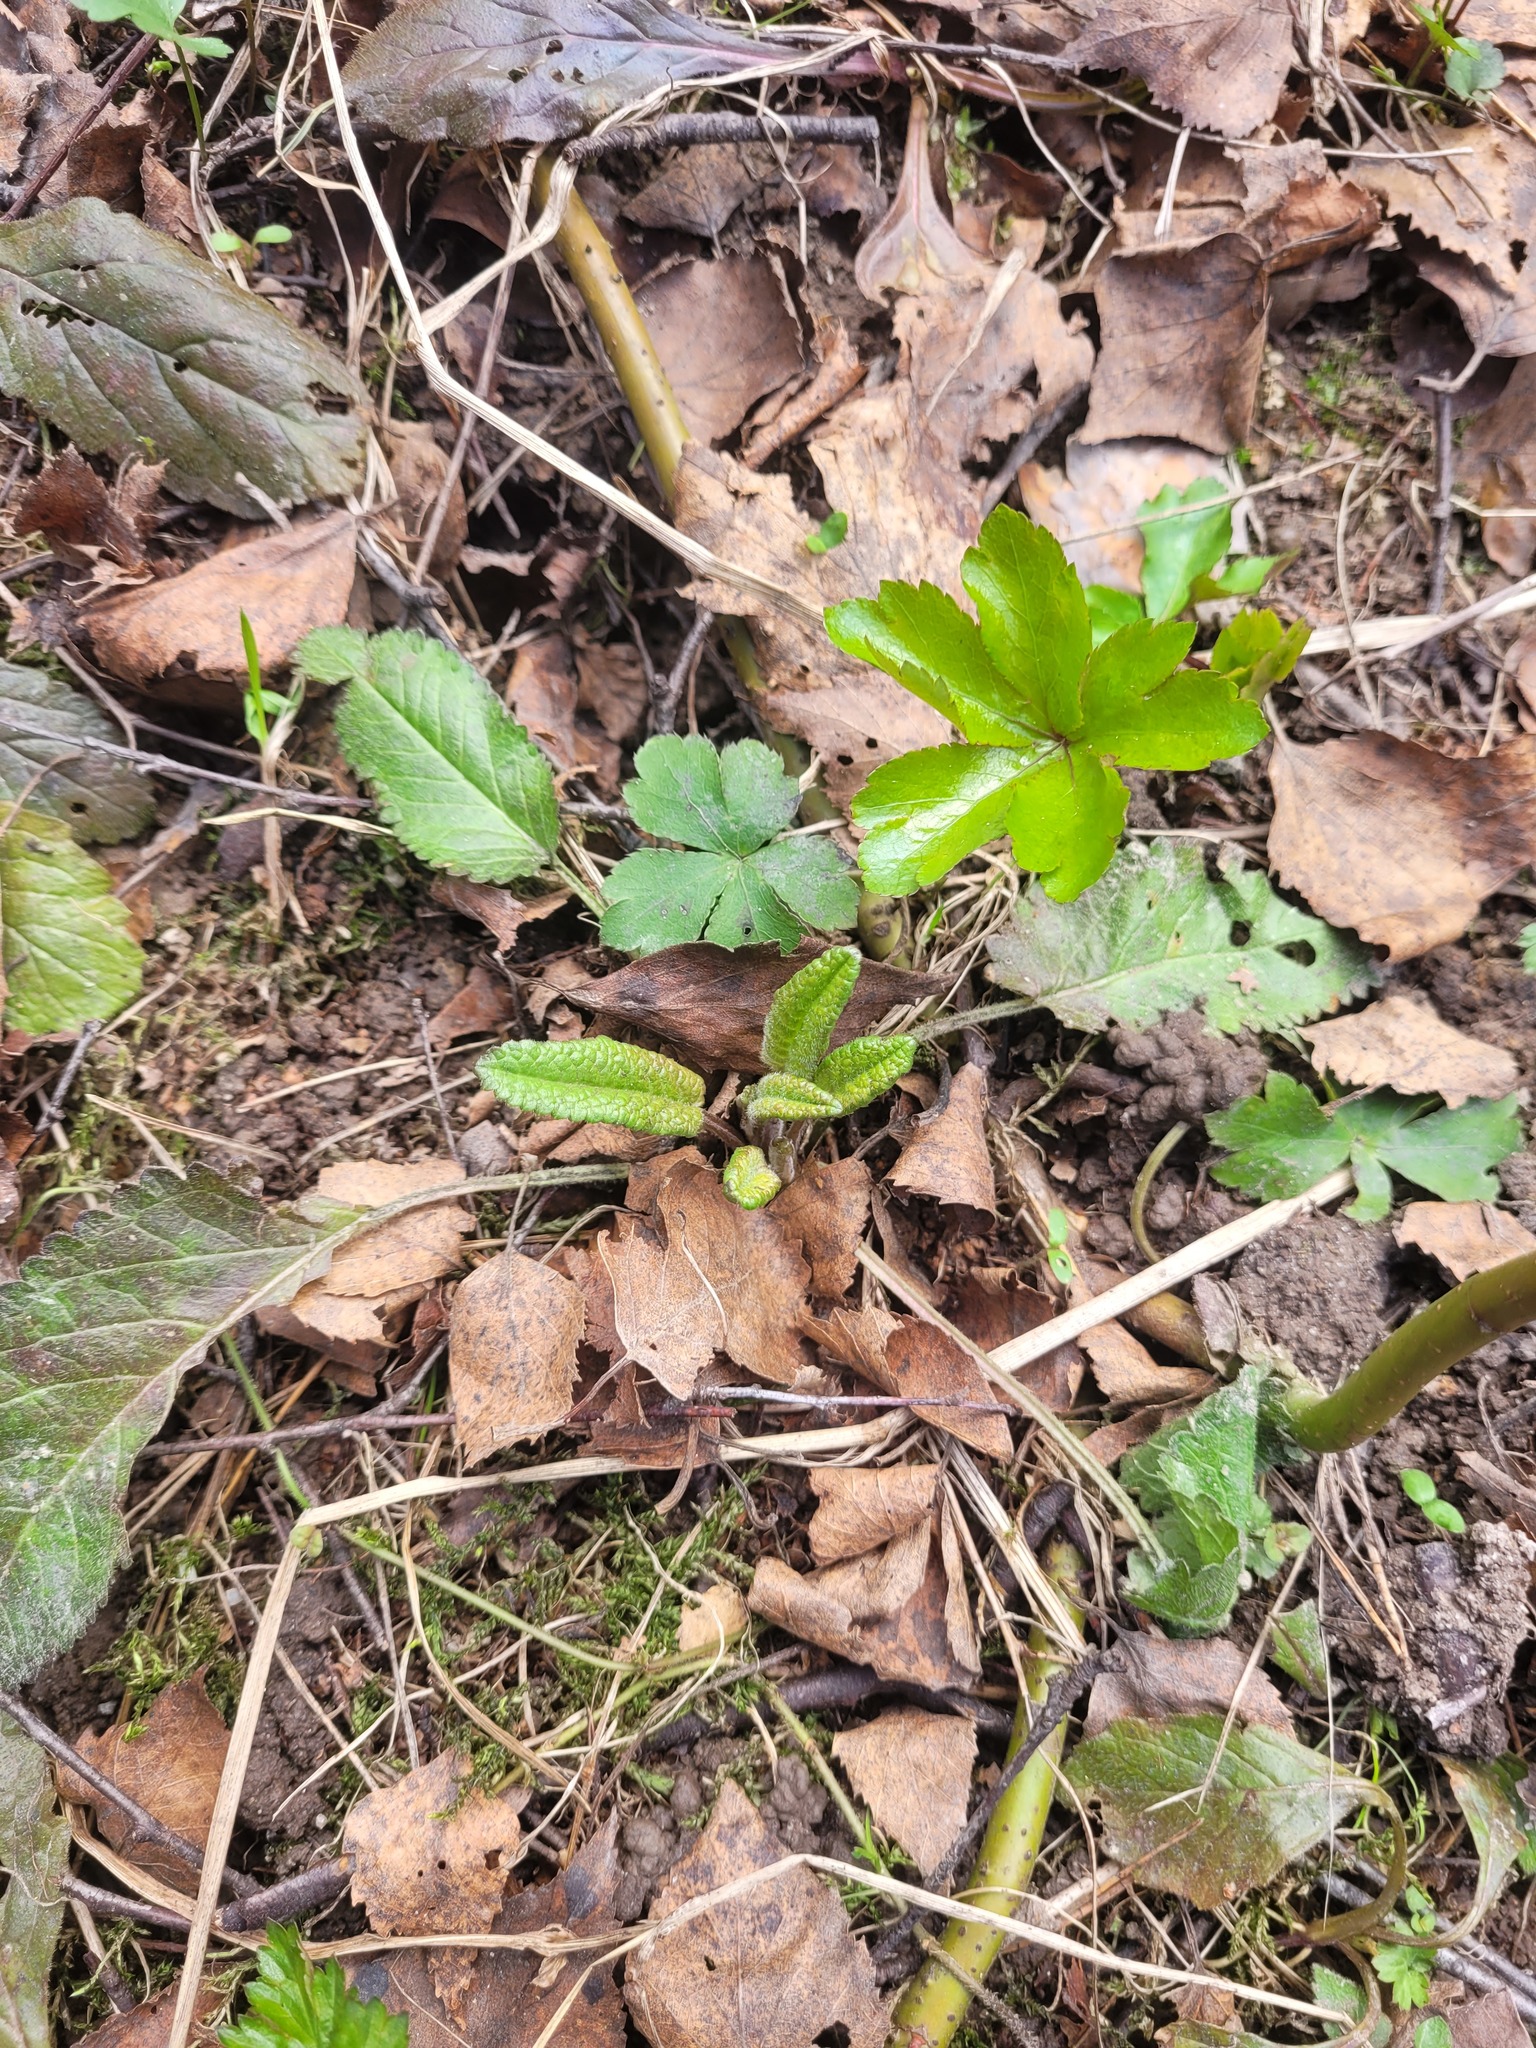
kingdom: Plantae
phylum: Tracheophyta
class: Magnoliopsida
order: Lamiales
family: Lamiaceae
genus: Betonica
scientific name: Betonica officinalis
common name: Bishop's-wort
